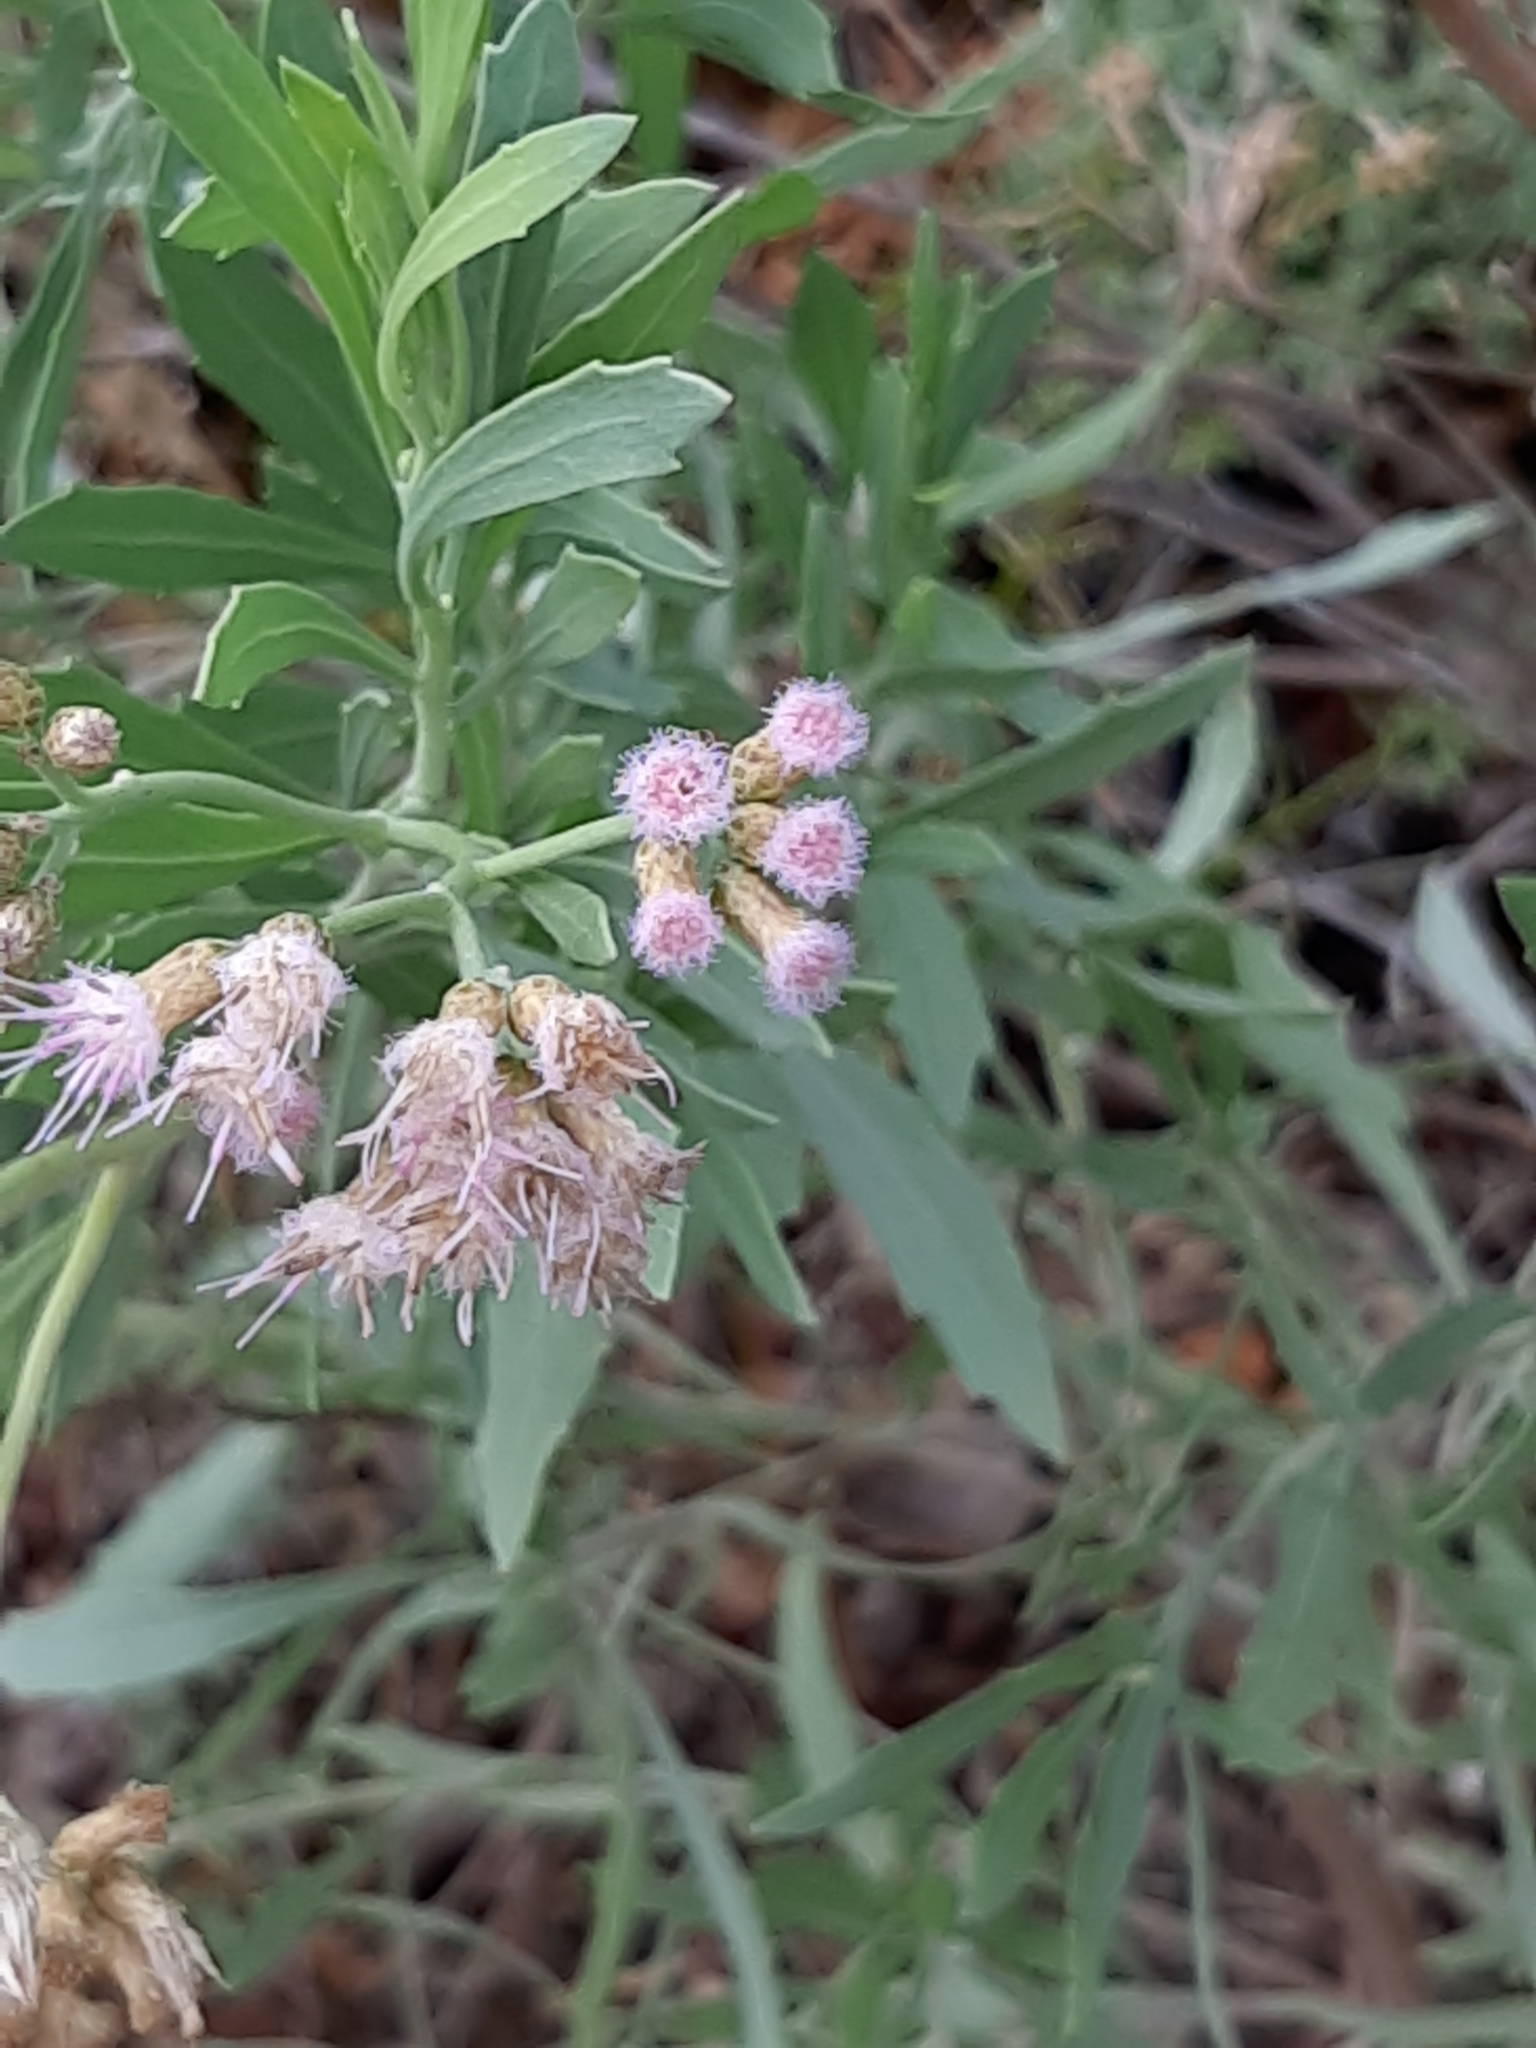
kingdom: Plantae
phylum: Tracheophyta
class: Magnoliopsida
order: Asterales
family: Asteraceae
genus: Tessaria
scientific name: Tessaria absinthioides
